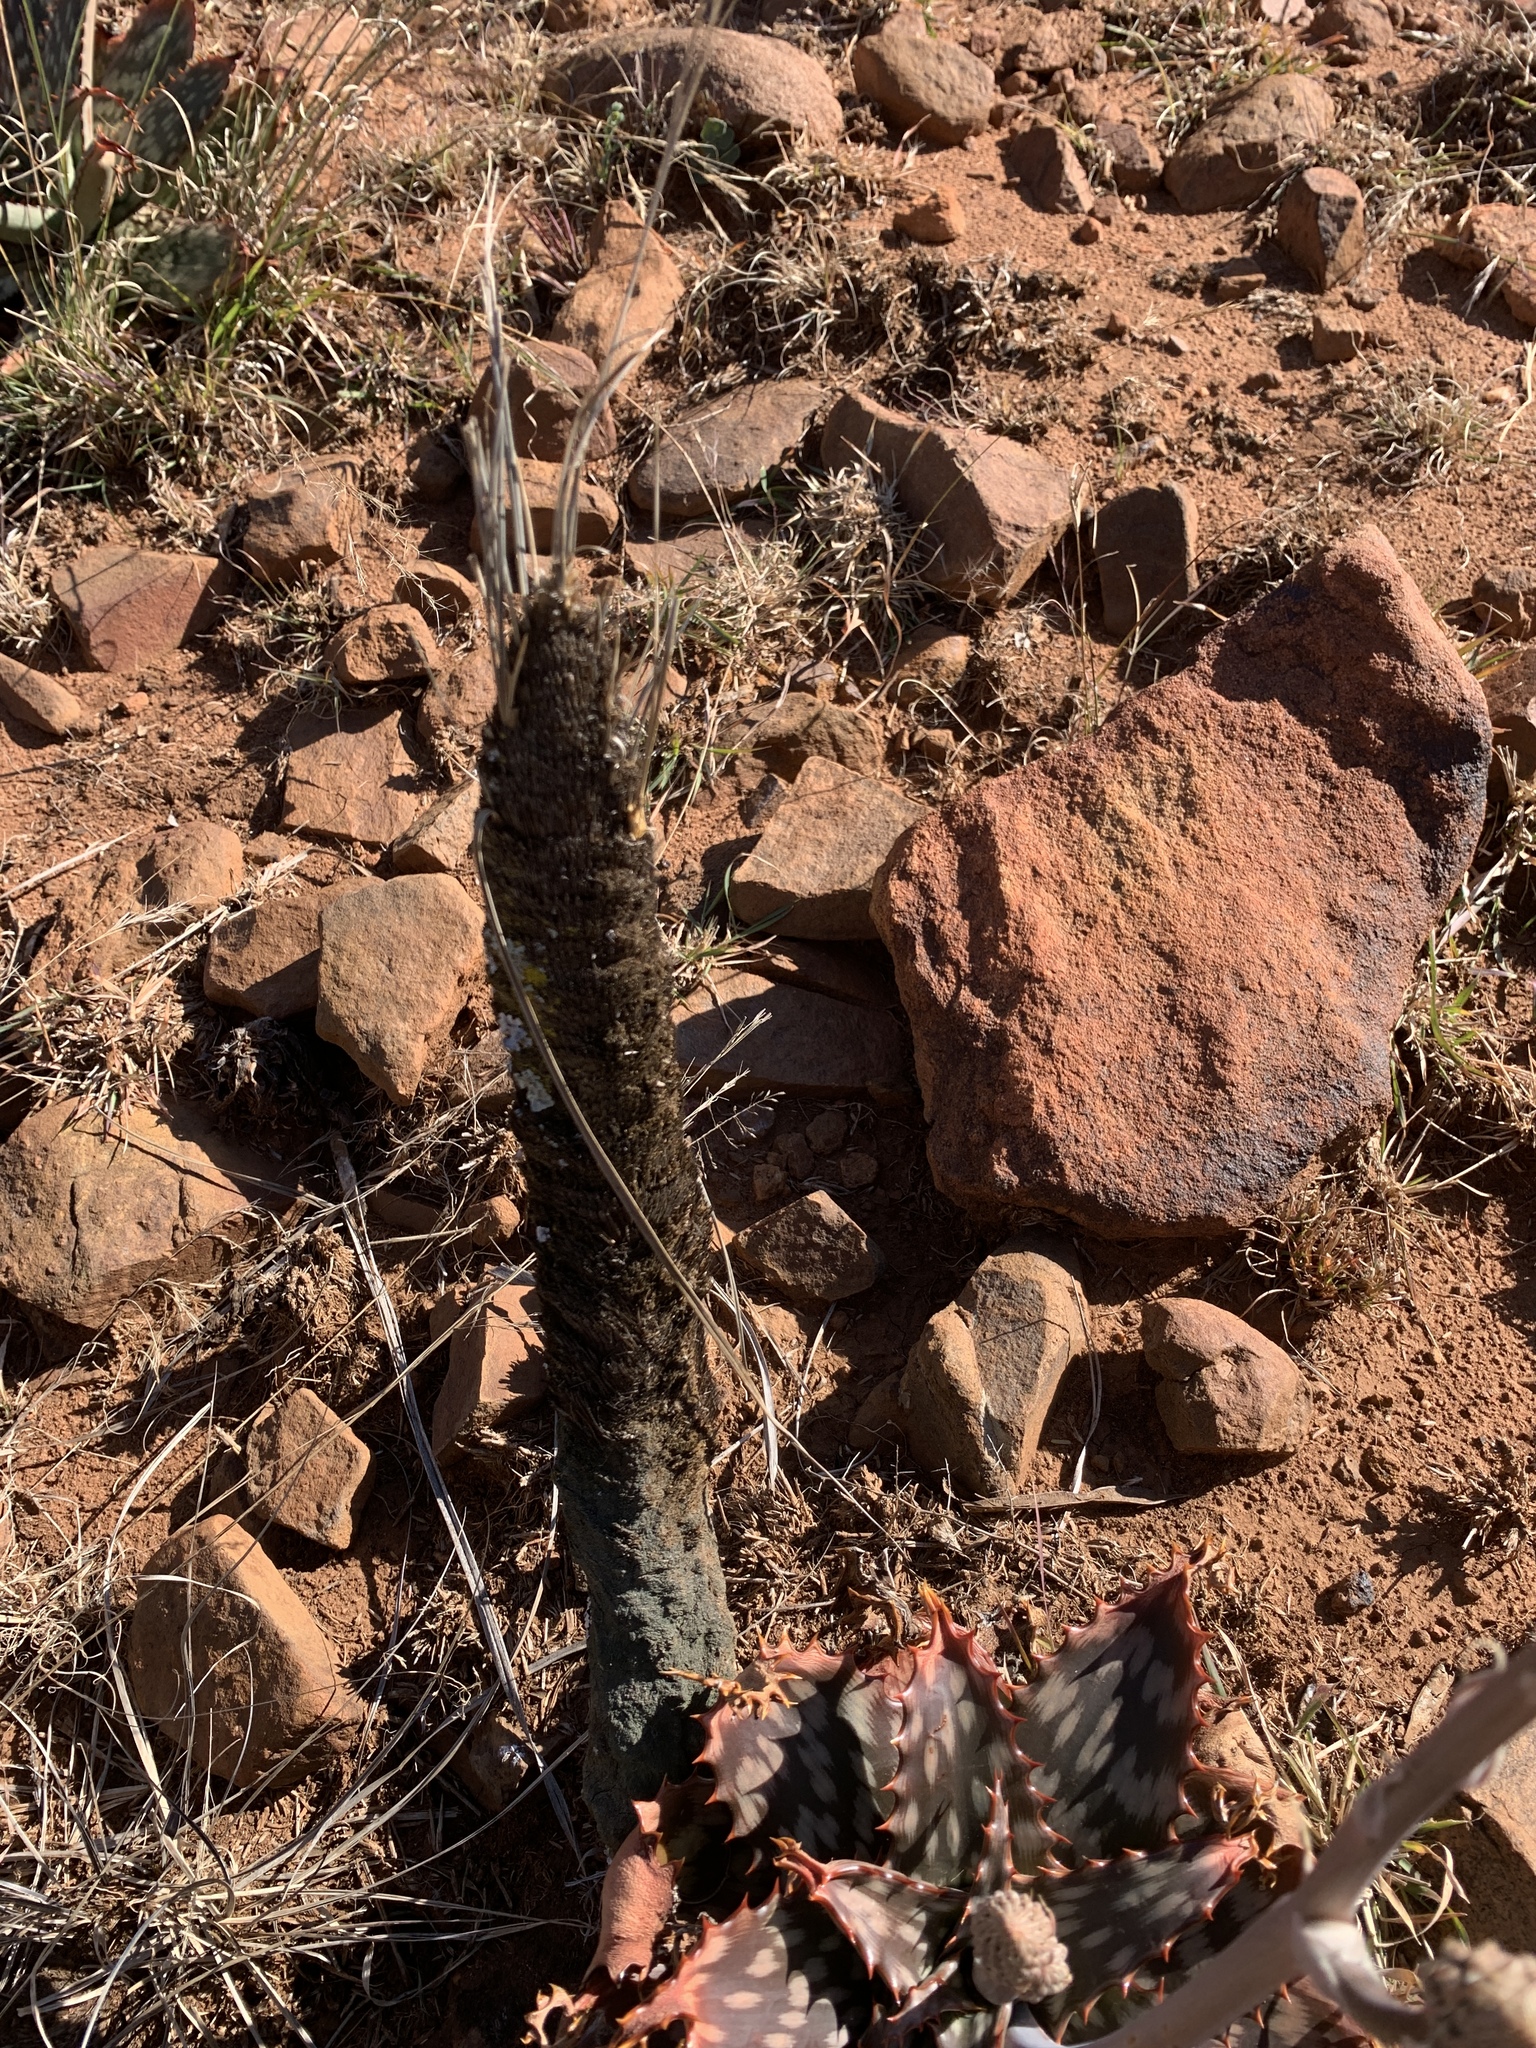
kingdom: Plantae
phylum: Tracheophyta
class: Liliopsida
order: Pandanales
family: Velloziaceae
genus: Xerophyta
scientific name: Xerophyta retinervis
